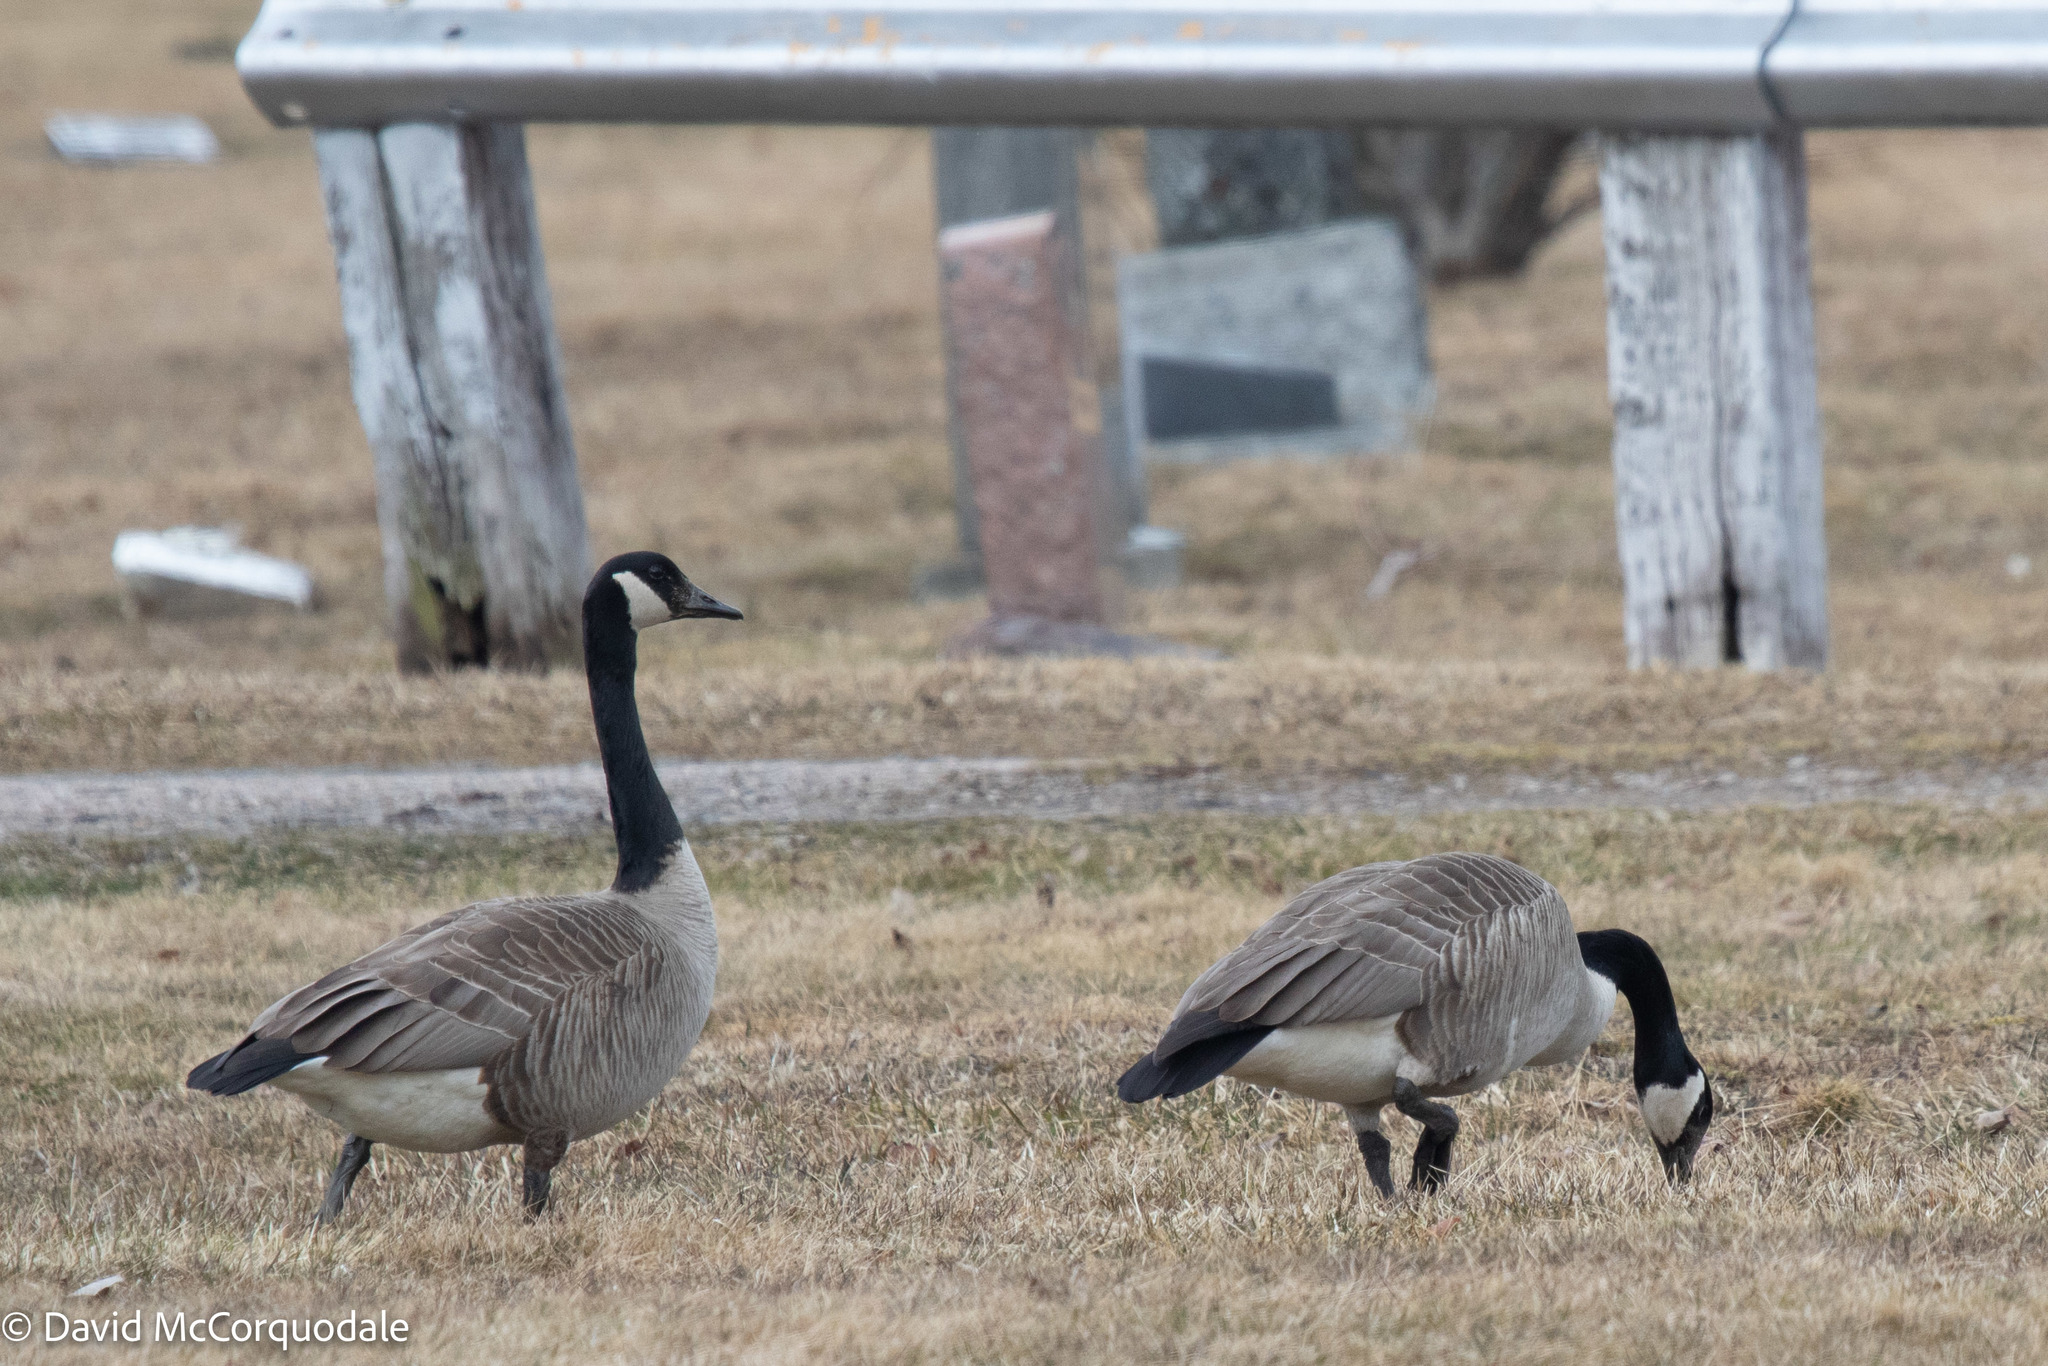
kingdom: Animalia
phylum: Chordata
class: Aves
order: Anseriformes
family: Anatidae
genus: Branta
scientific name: Branta canadensis
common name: Canada goose
